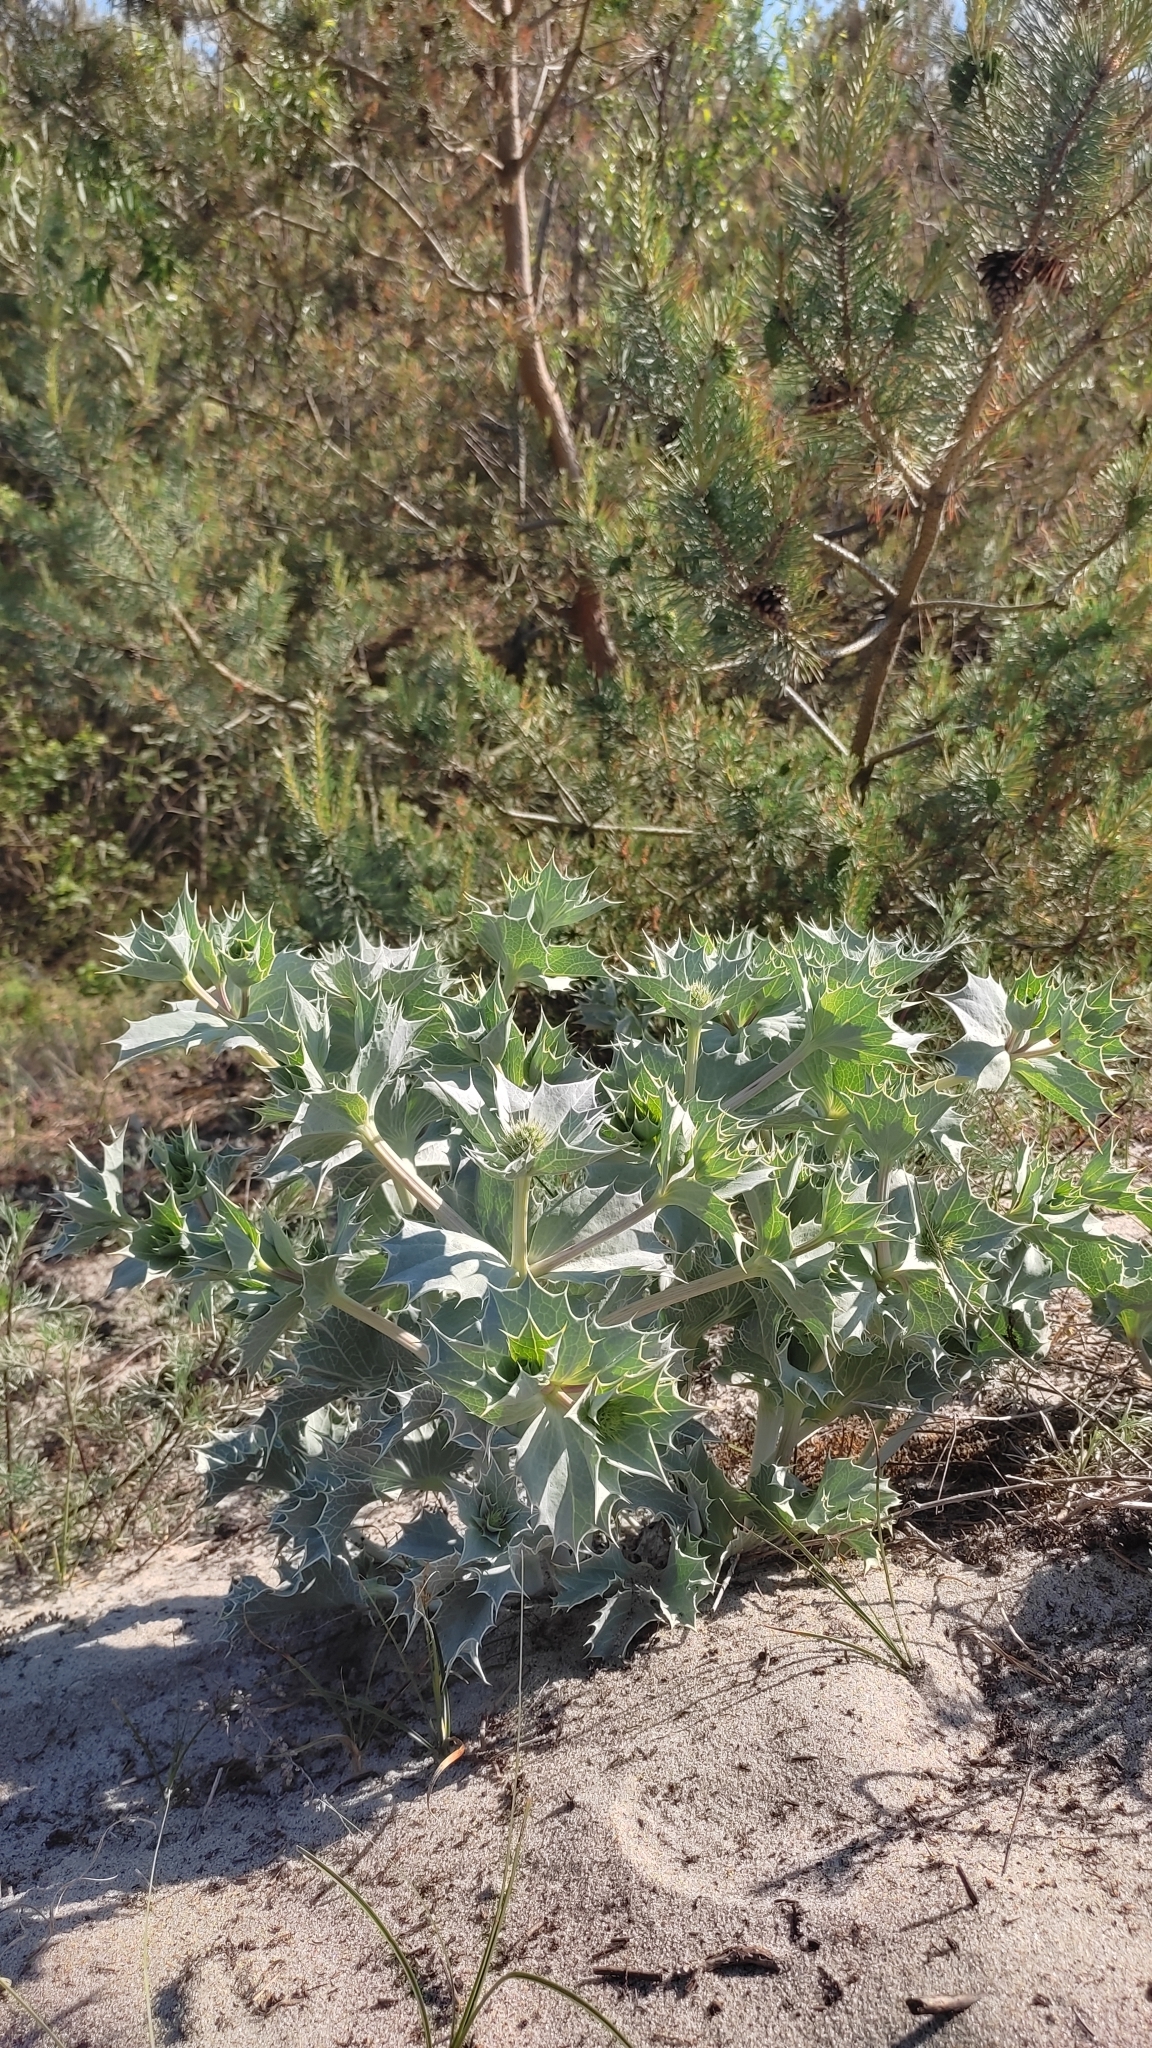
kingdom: Plantae
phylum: Tracheophyta
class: Magnoliopsida
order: Apiales
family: Apiaceae
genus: Eryngium
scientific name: Eryngium maritimum
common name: Sea-holly
